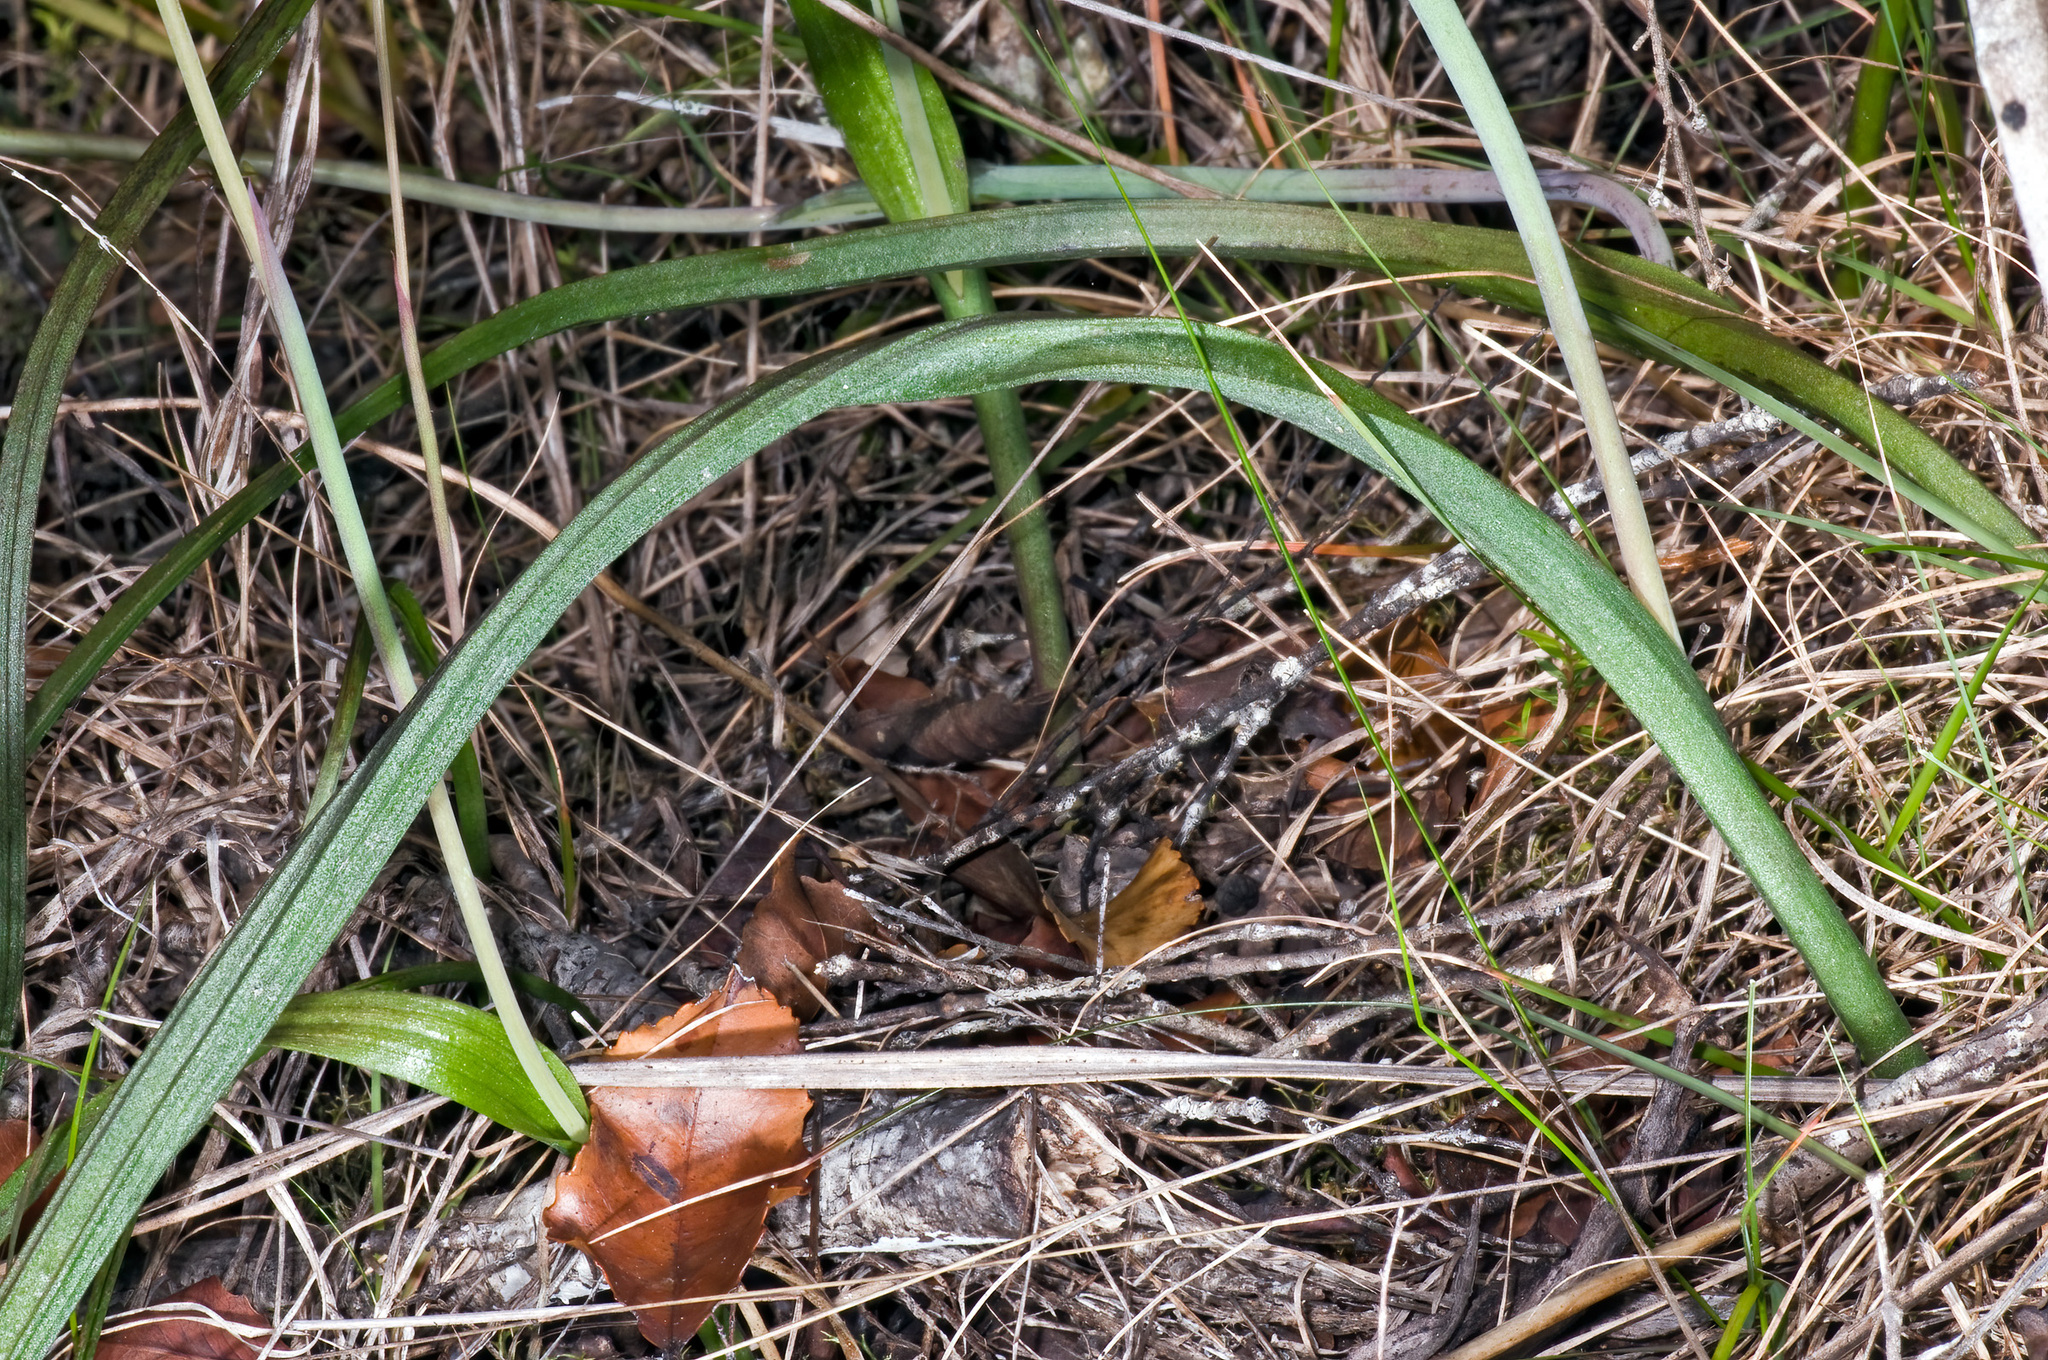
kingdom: Plantae
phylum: Tracheophyta
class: Liliopsida
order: Asparagales
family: Orchidaceae
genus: Thelymitra
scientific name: Thelymitra nervosa
